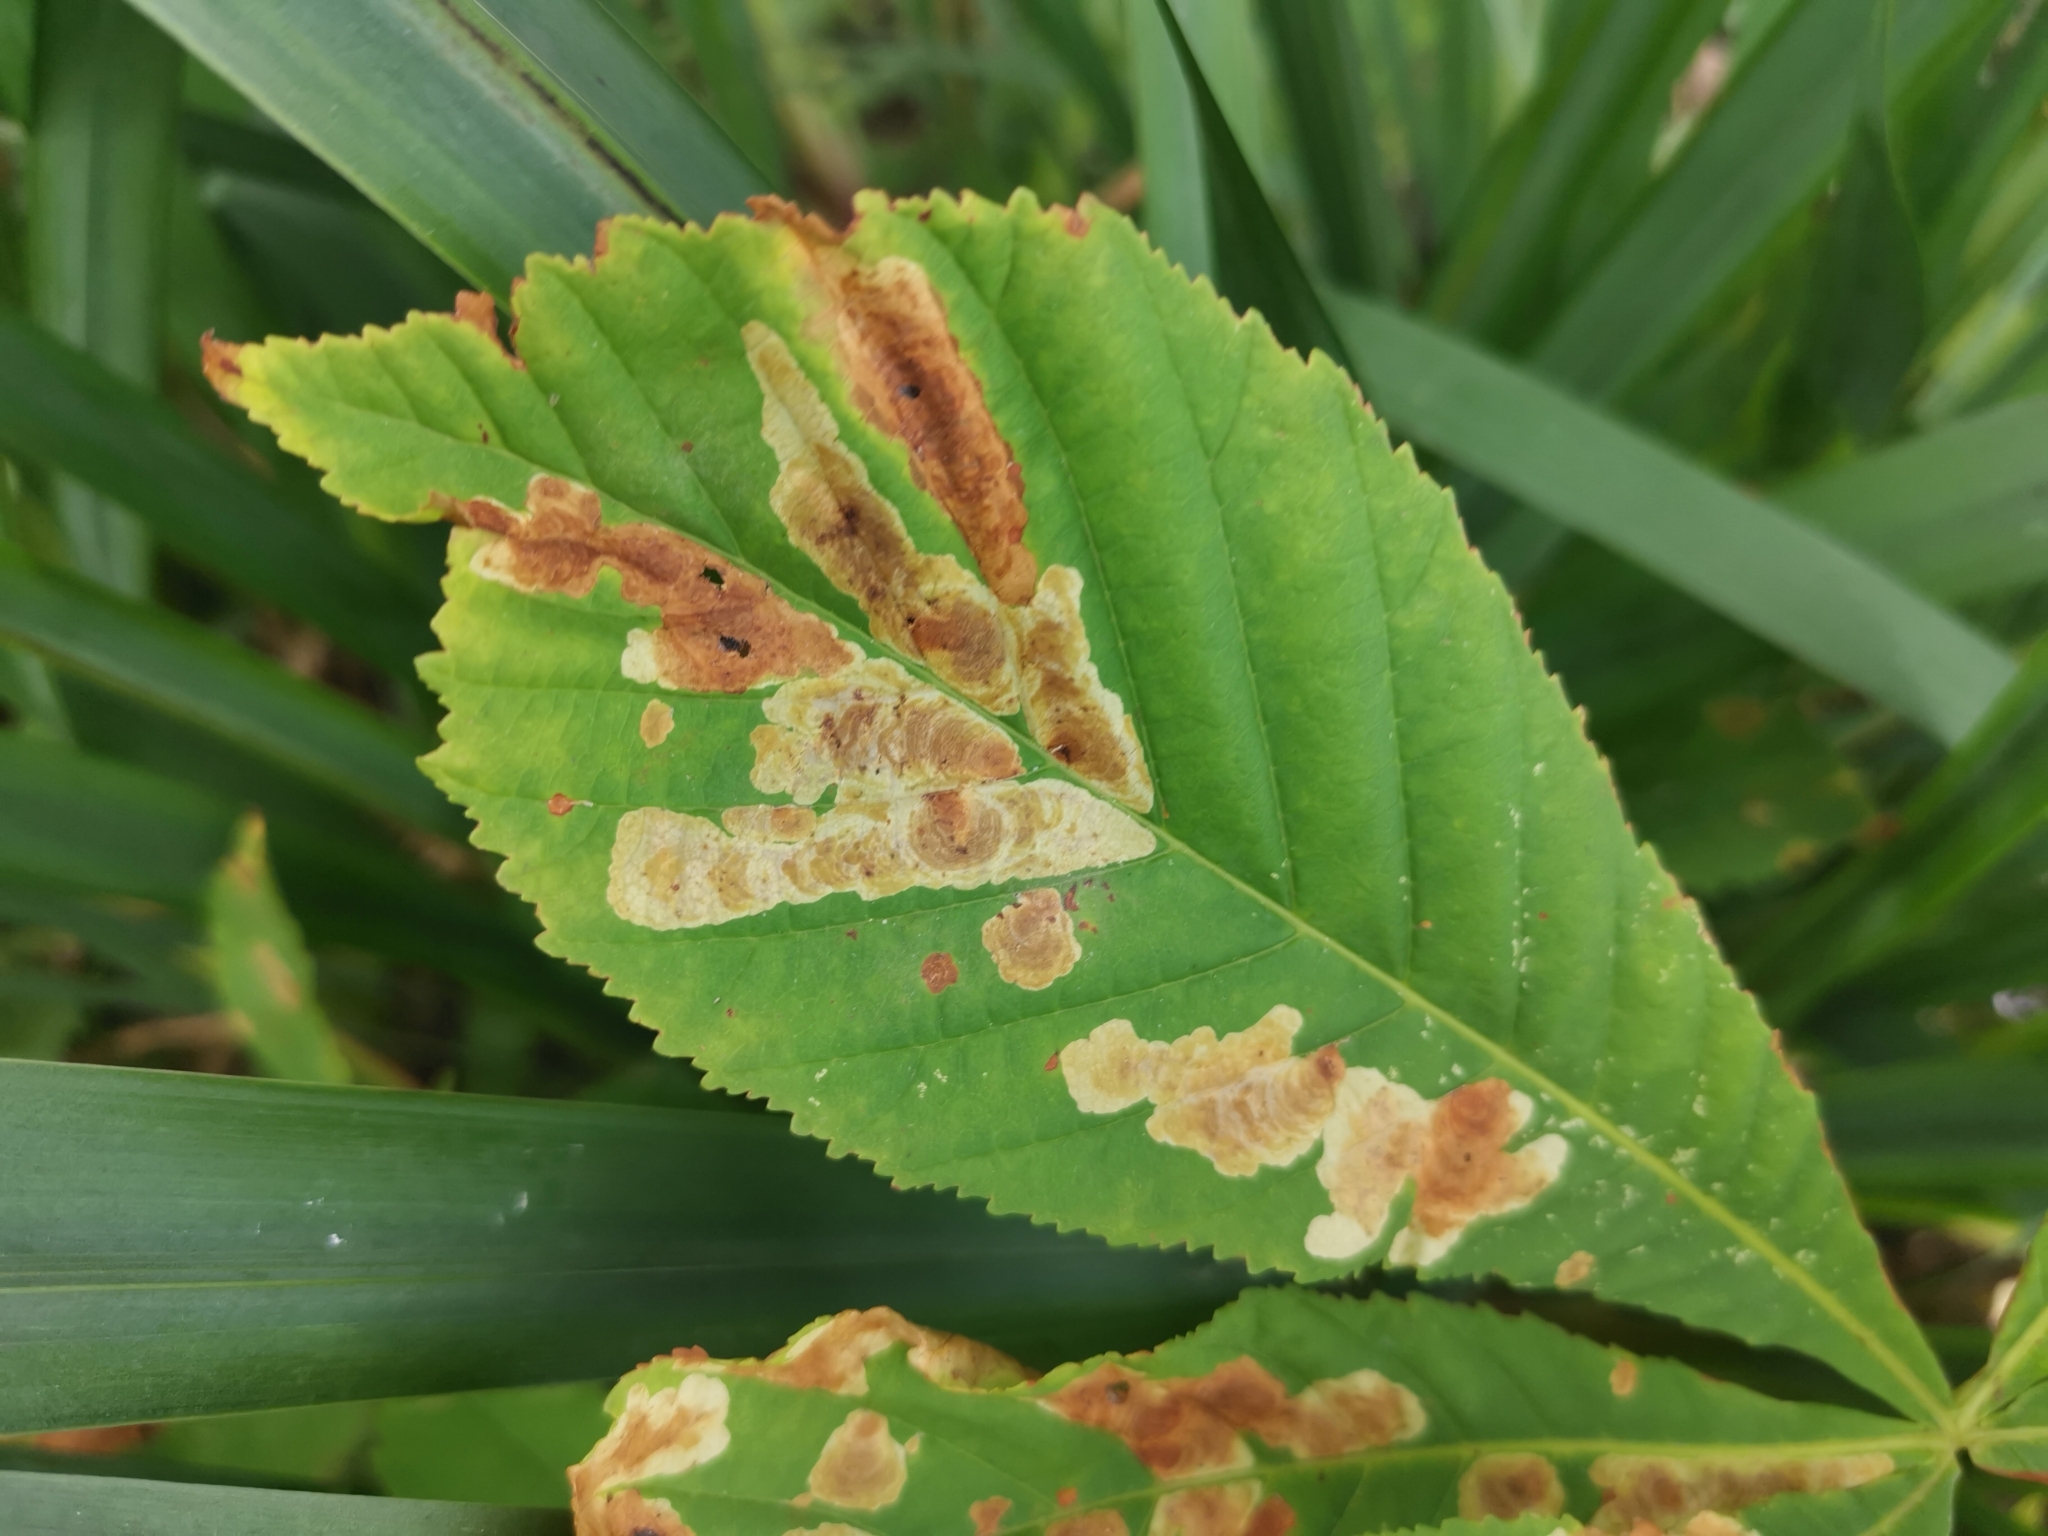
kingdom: Animalia
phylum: Arthropoda
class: Insecta
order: Lepidoptera
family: Gracillariidae
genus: Cameraria
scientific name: Cameraria ohridella
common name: Horse-chestnut leaf-miner
